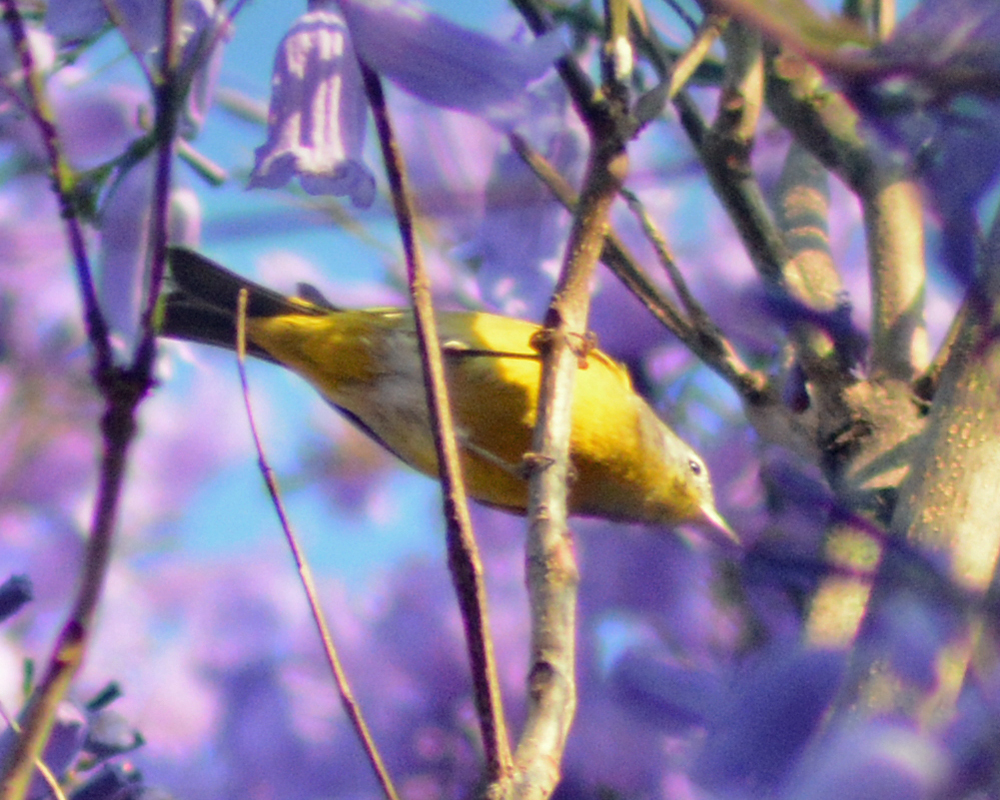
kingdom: Animalia
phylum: Chordata
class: Aves
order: Passeriformes
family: Parulidae
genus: Leiothlypis
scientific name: Leiothlypis ruficapilla
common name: Nashville warbler
